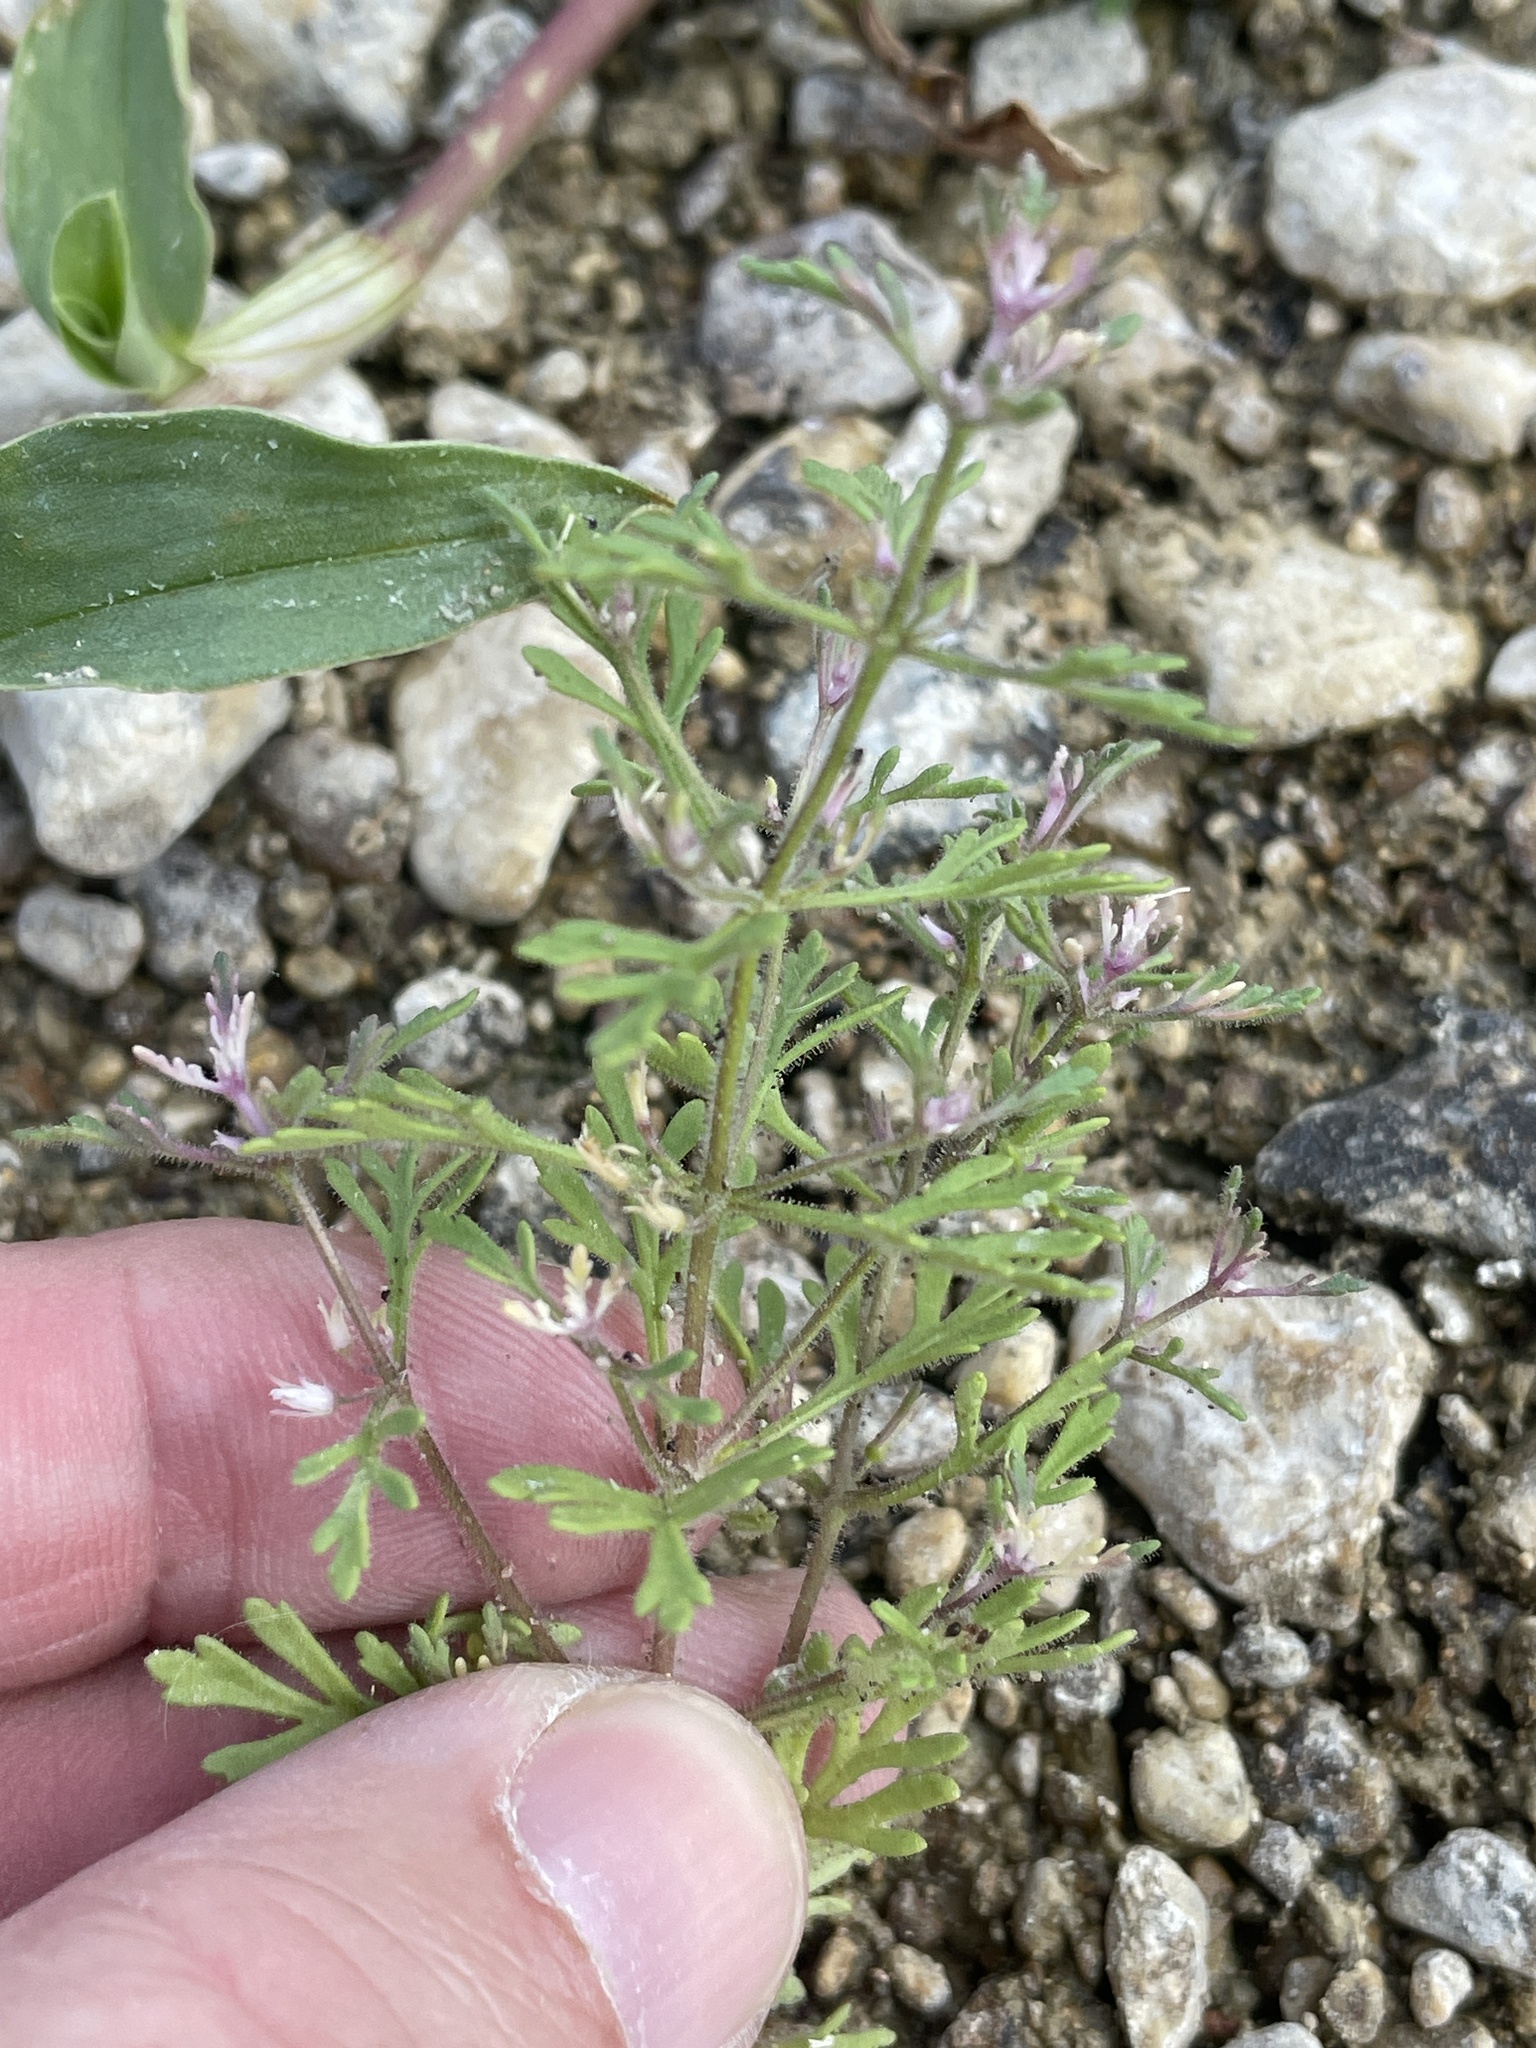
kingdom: Plantae
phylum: Tracheophyta
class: Magnoliopsida
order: Lamiales
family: Plantaginaceae
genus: Leucospora
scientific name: Leucospora multifida
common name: Narrow-leaf paleseed
